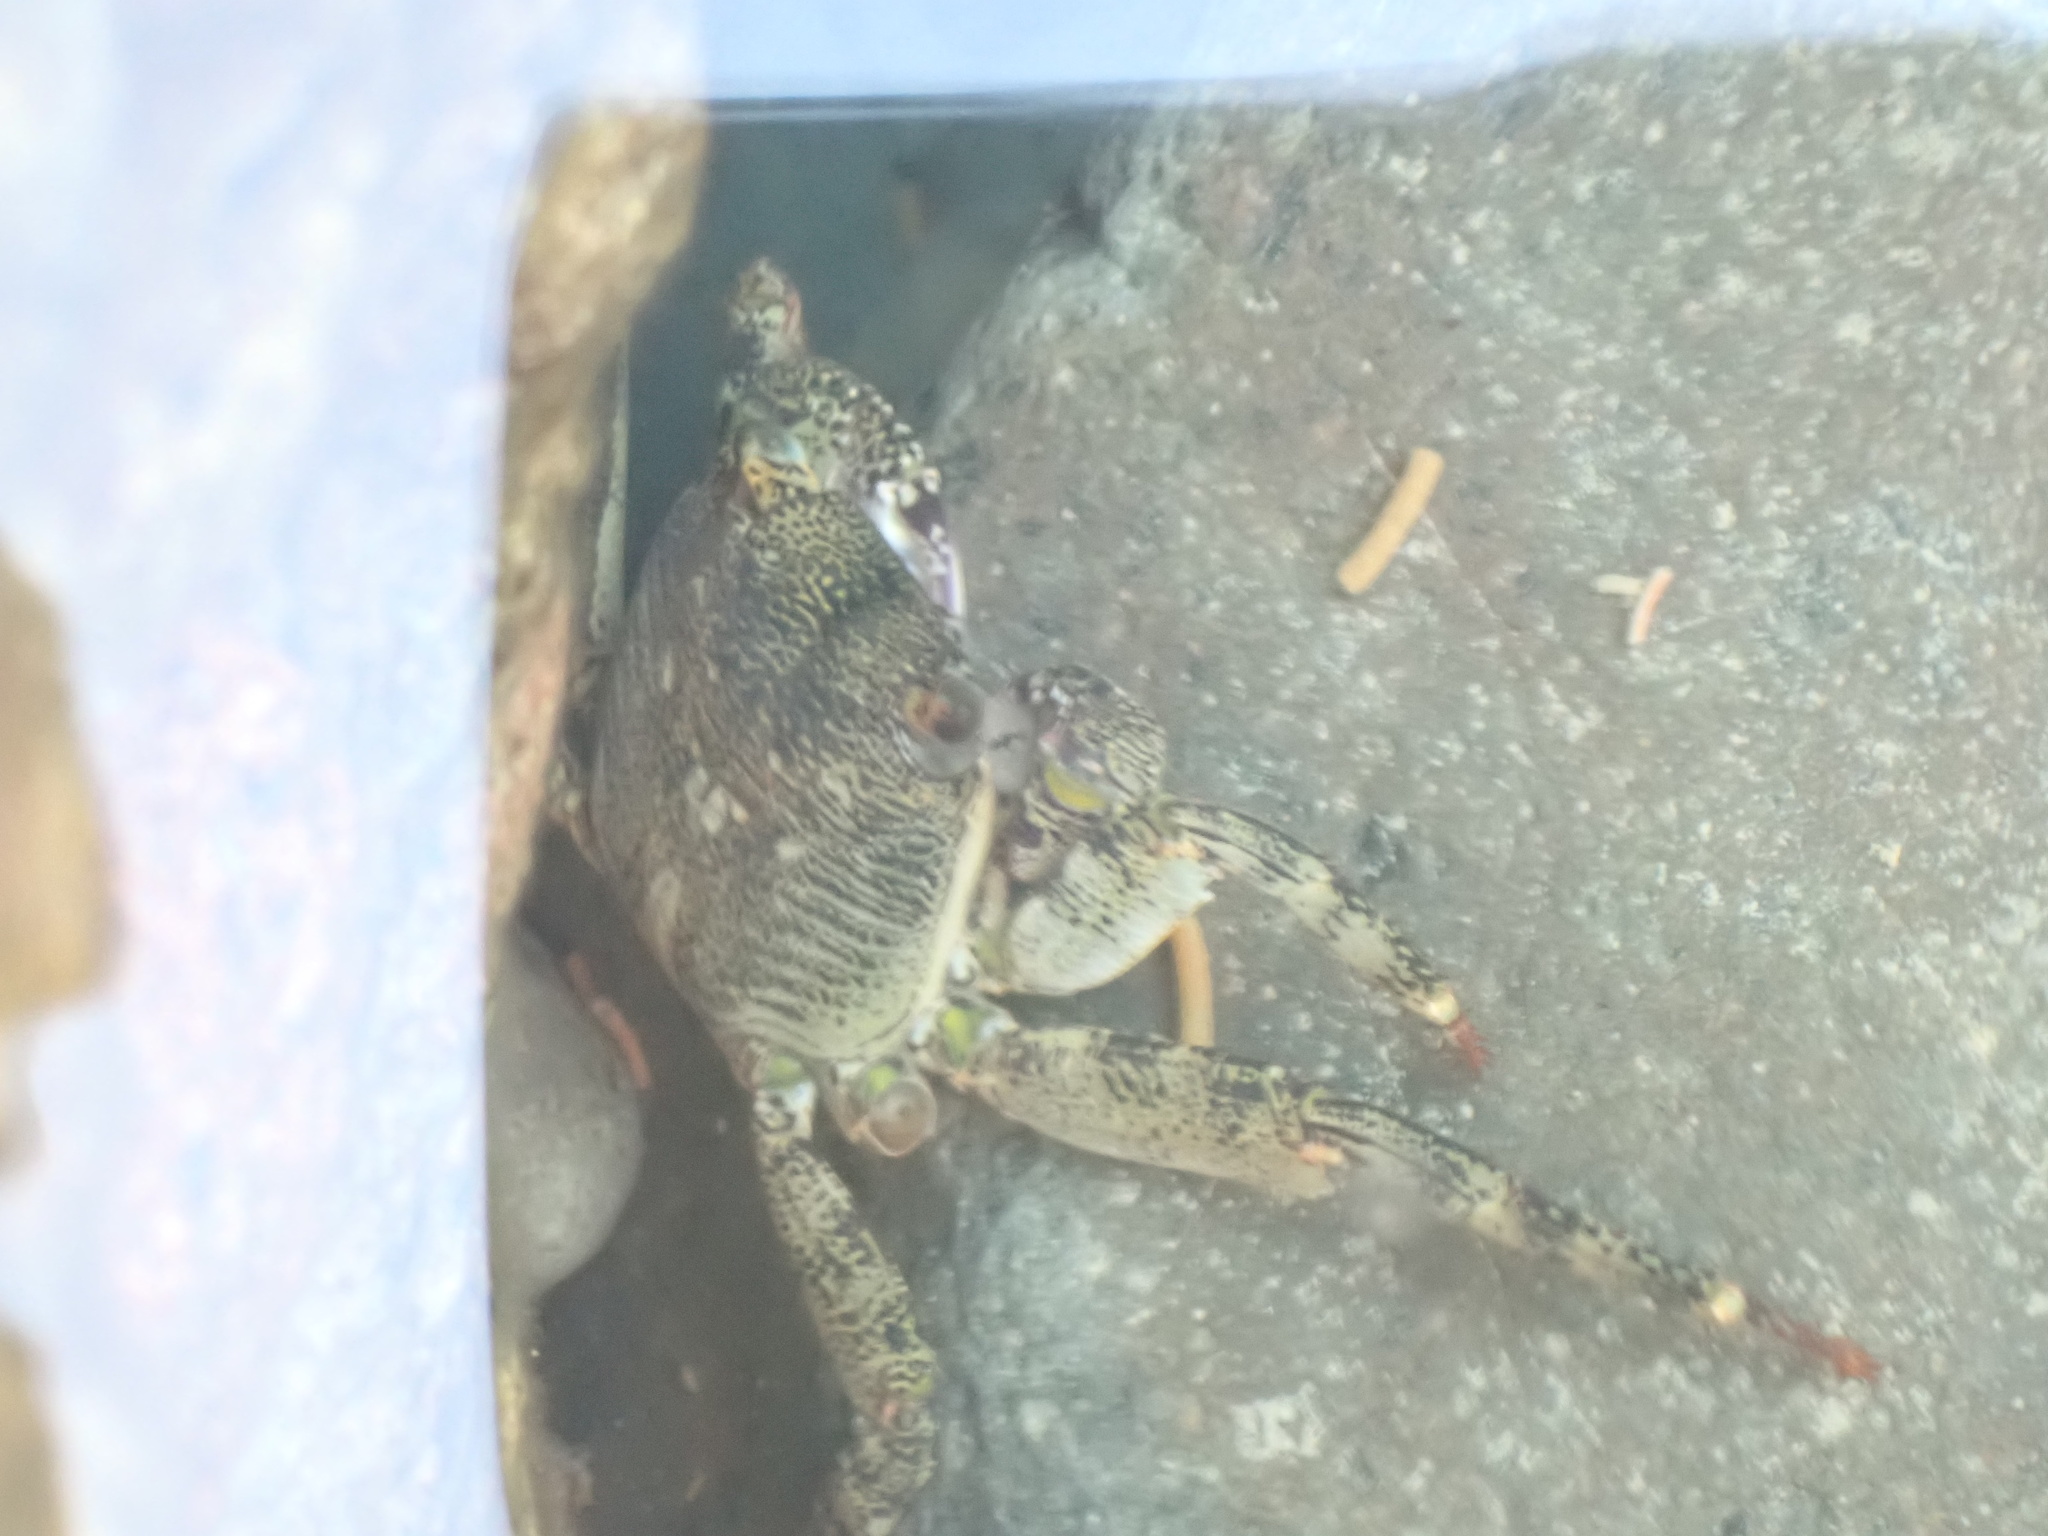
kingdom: Animalia
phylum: Arthropoda
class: Malacostraca
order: Decapoda
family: Grapsidae
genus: Leptograpsus
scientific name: Leptograpsus variegatus
